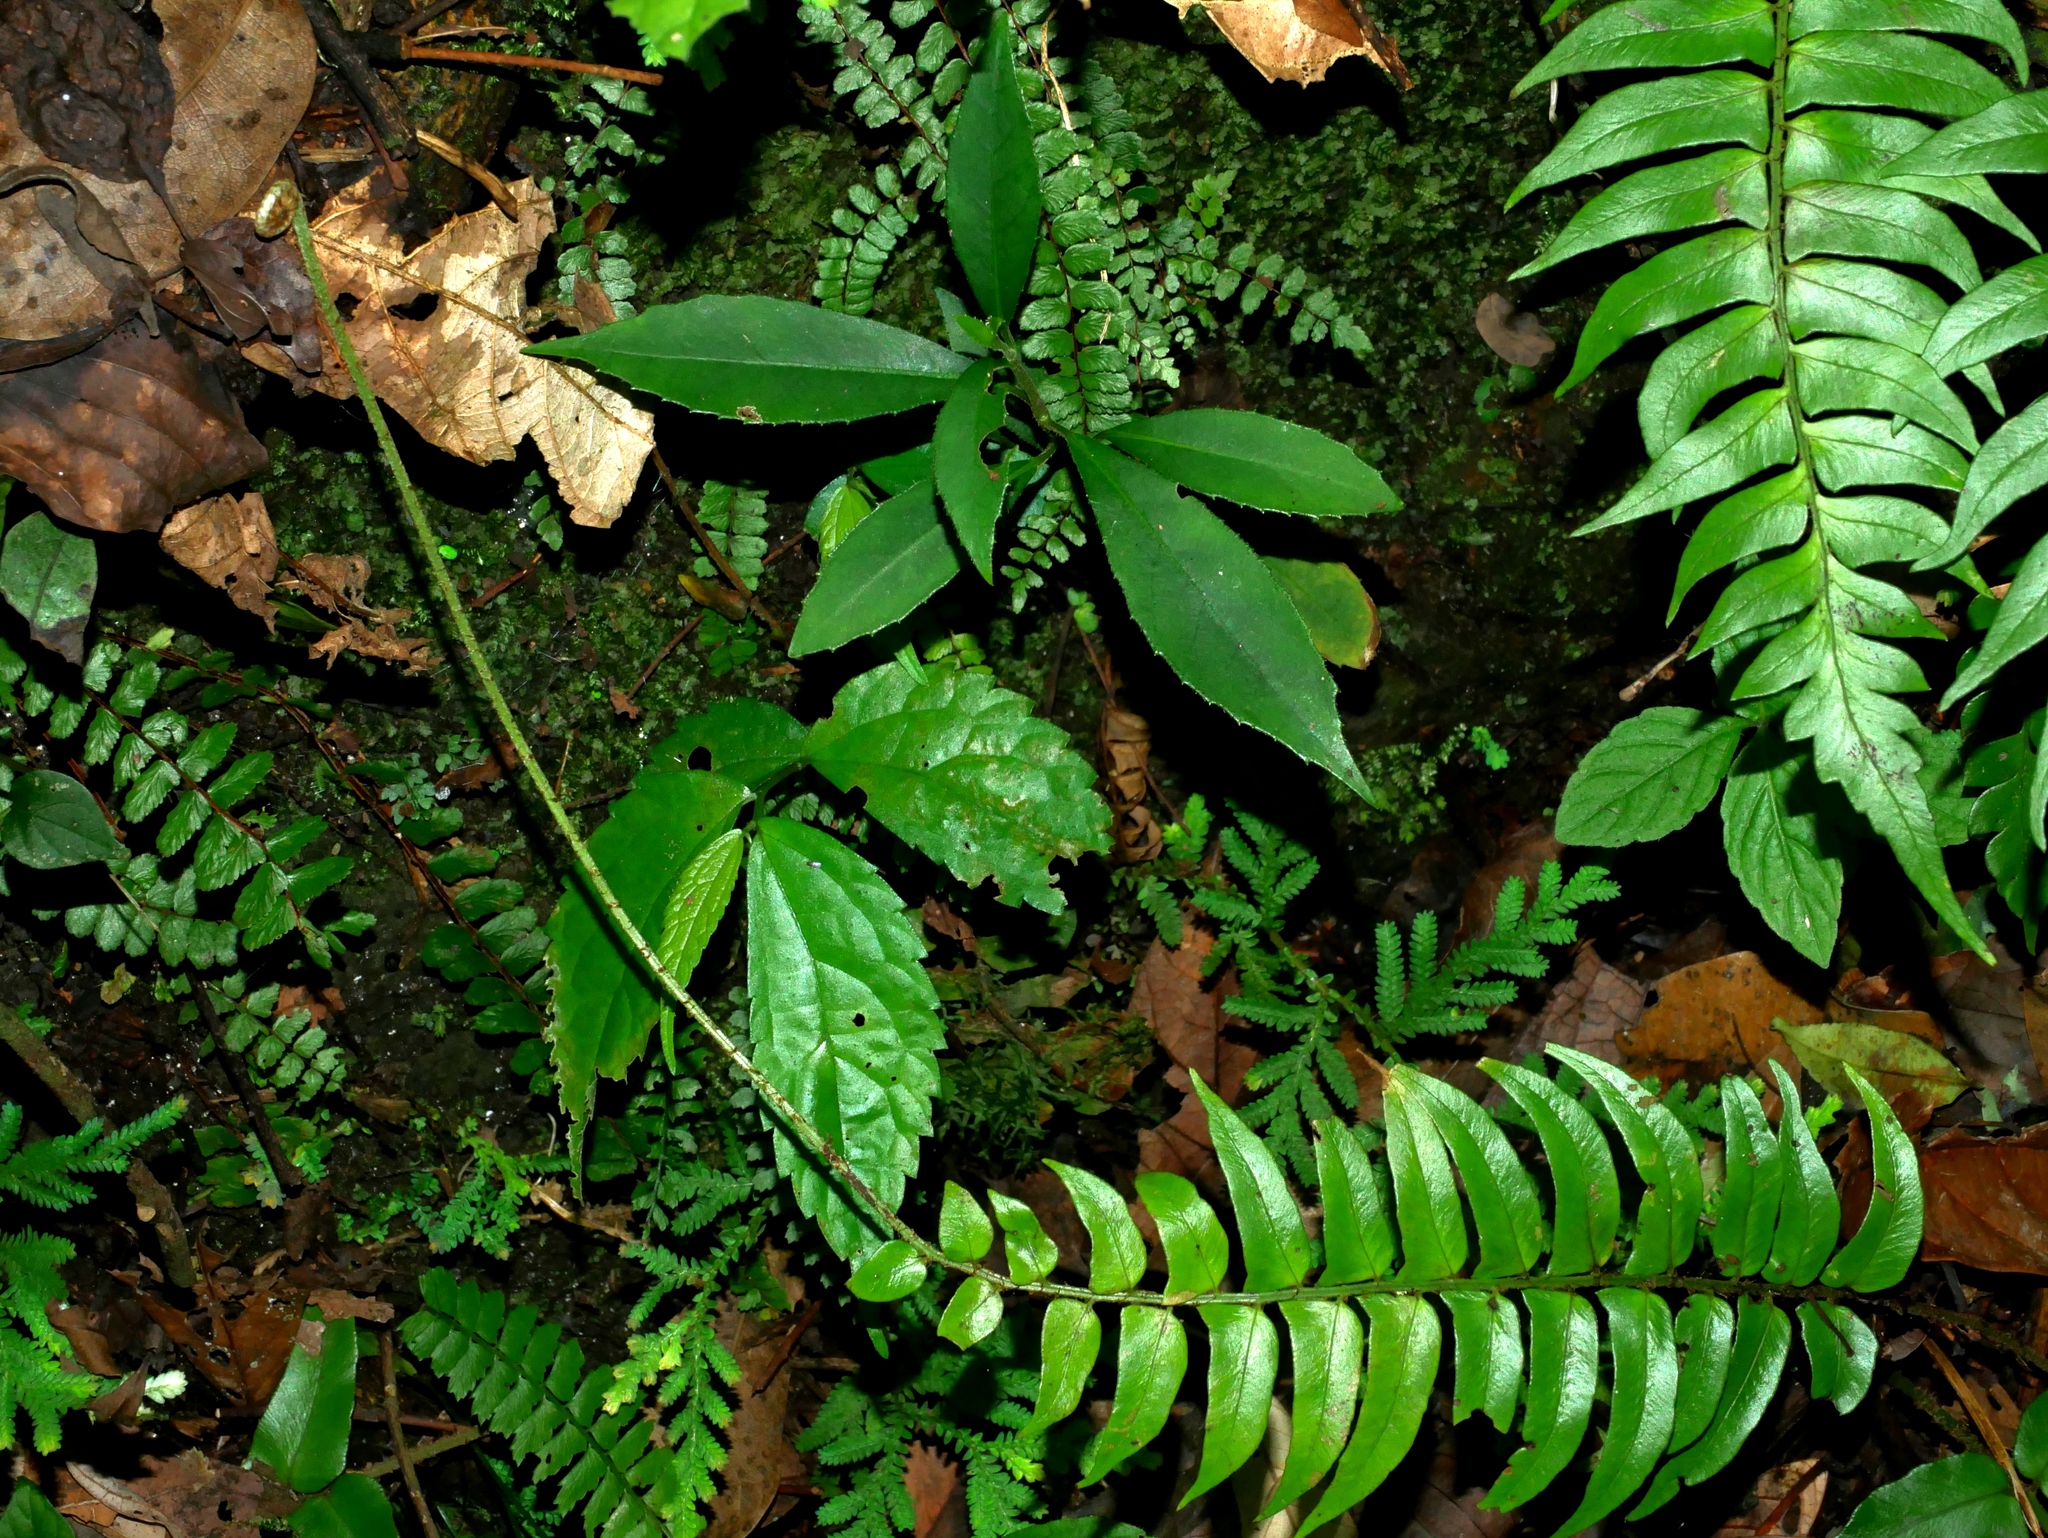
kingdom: Plantae
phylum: Tracheophyta
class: Polypodiopsida
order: Polypodiales
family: Dryopteridaceae
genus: Polystichum
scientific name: Polystichum lepidocaulon
